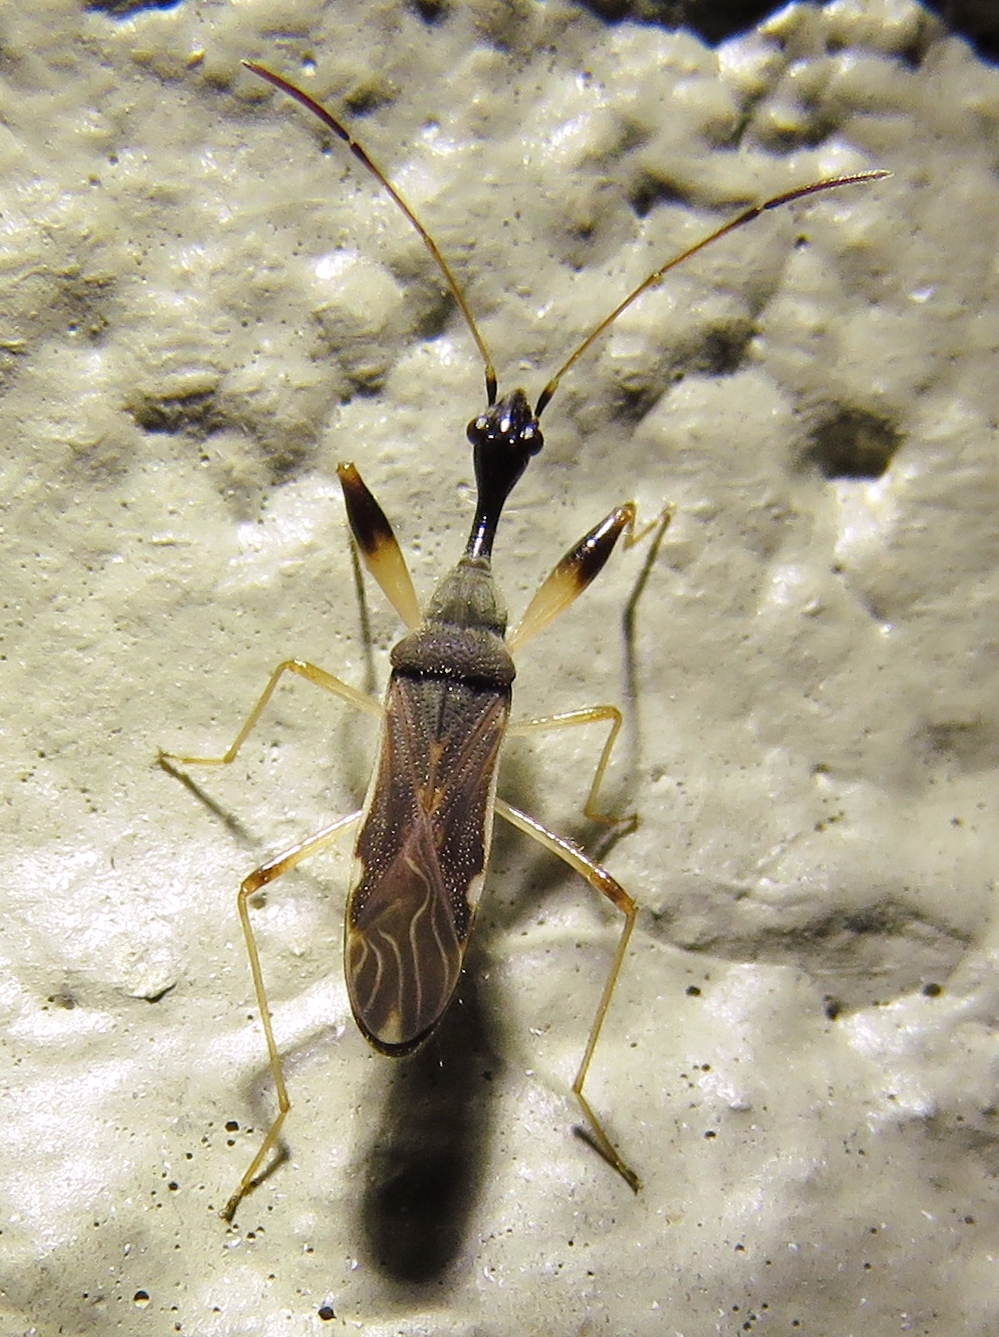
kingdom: Animalia
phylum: Arthropoda
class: Insecta
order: Hemiptera
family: Rhyparochromidae
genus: Myodocha
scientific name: Myodocha serripes
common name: Long-necked seed bug
